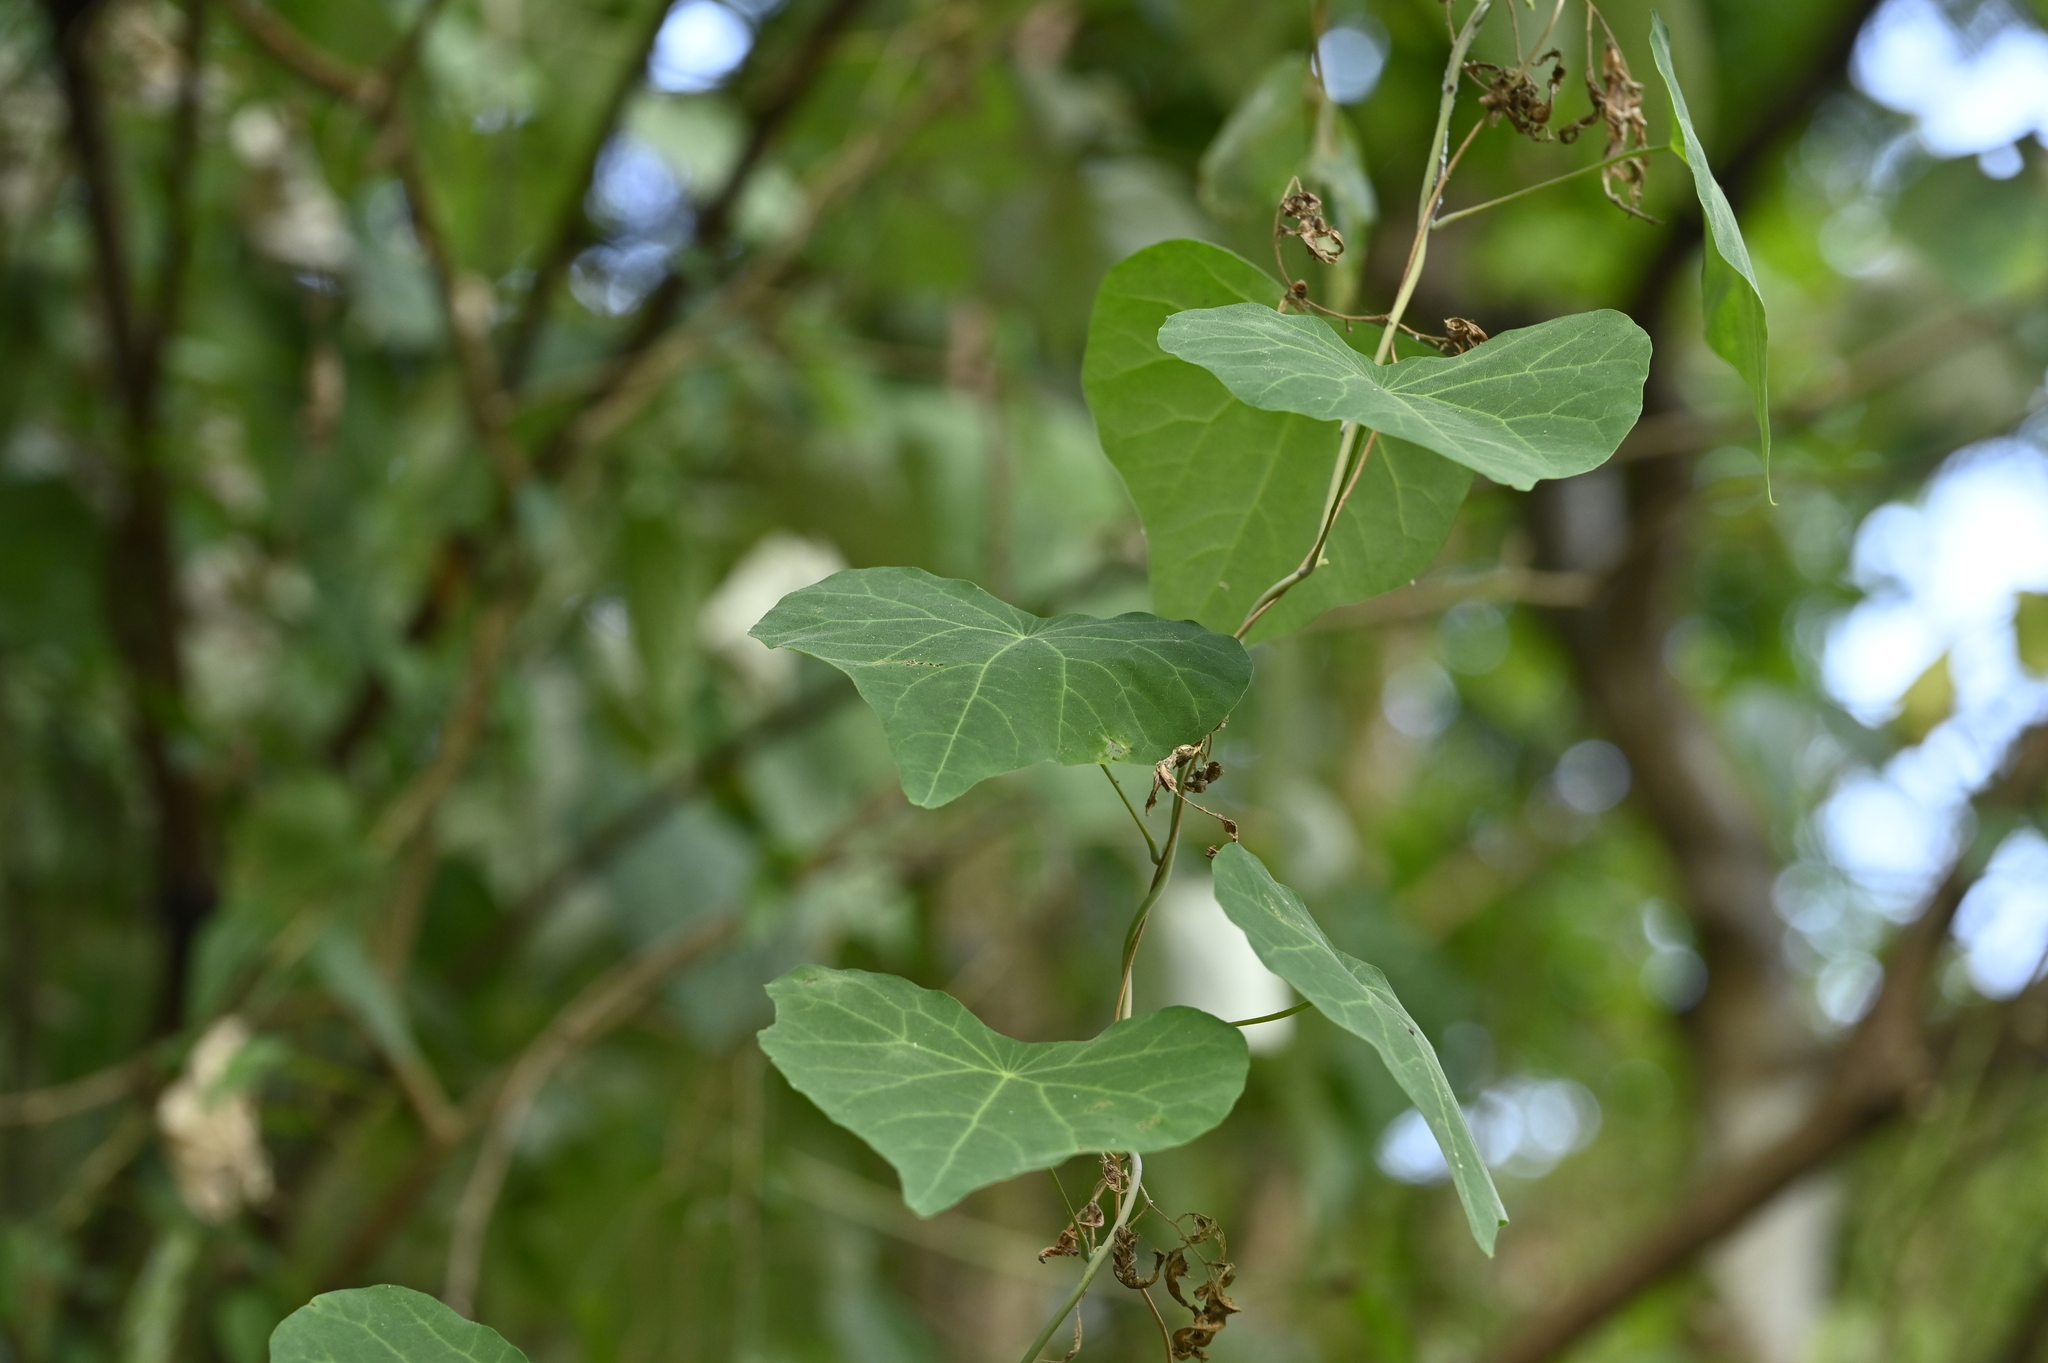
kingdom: Plantae
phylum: Tracheophyta
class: Magnoliopsida
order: Ranunculales
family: Menispermaceae
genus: Stephania
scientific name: Stephania tetrandra
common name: Stephania-root
